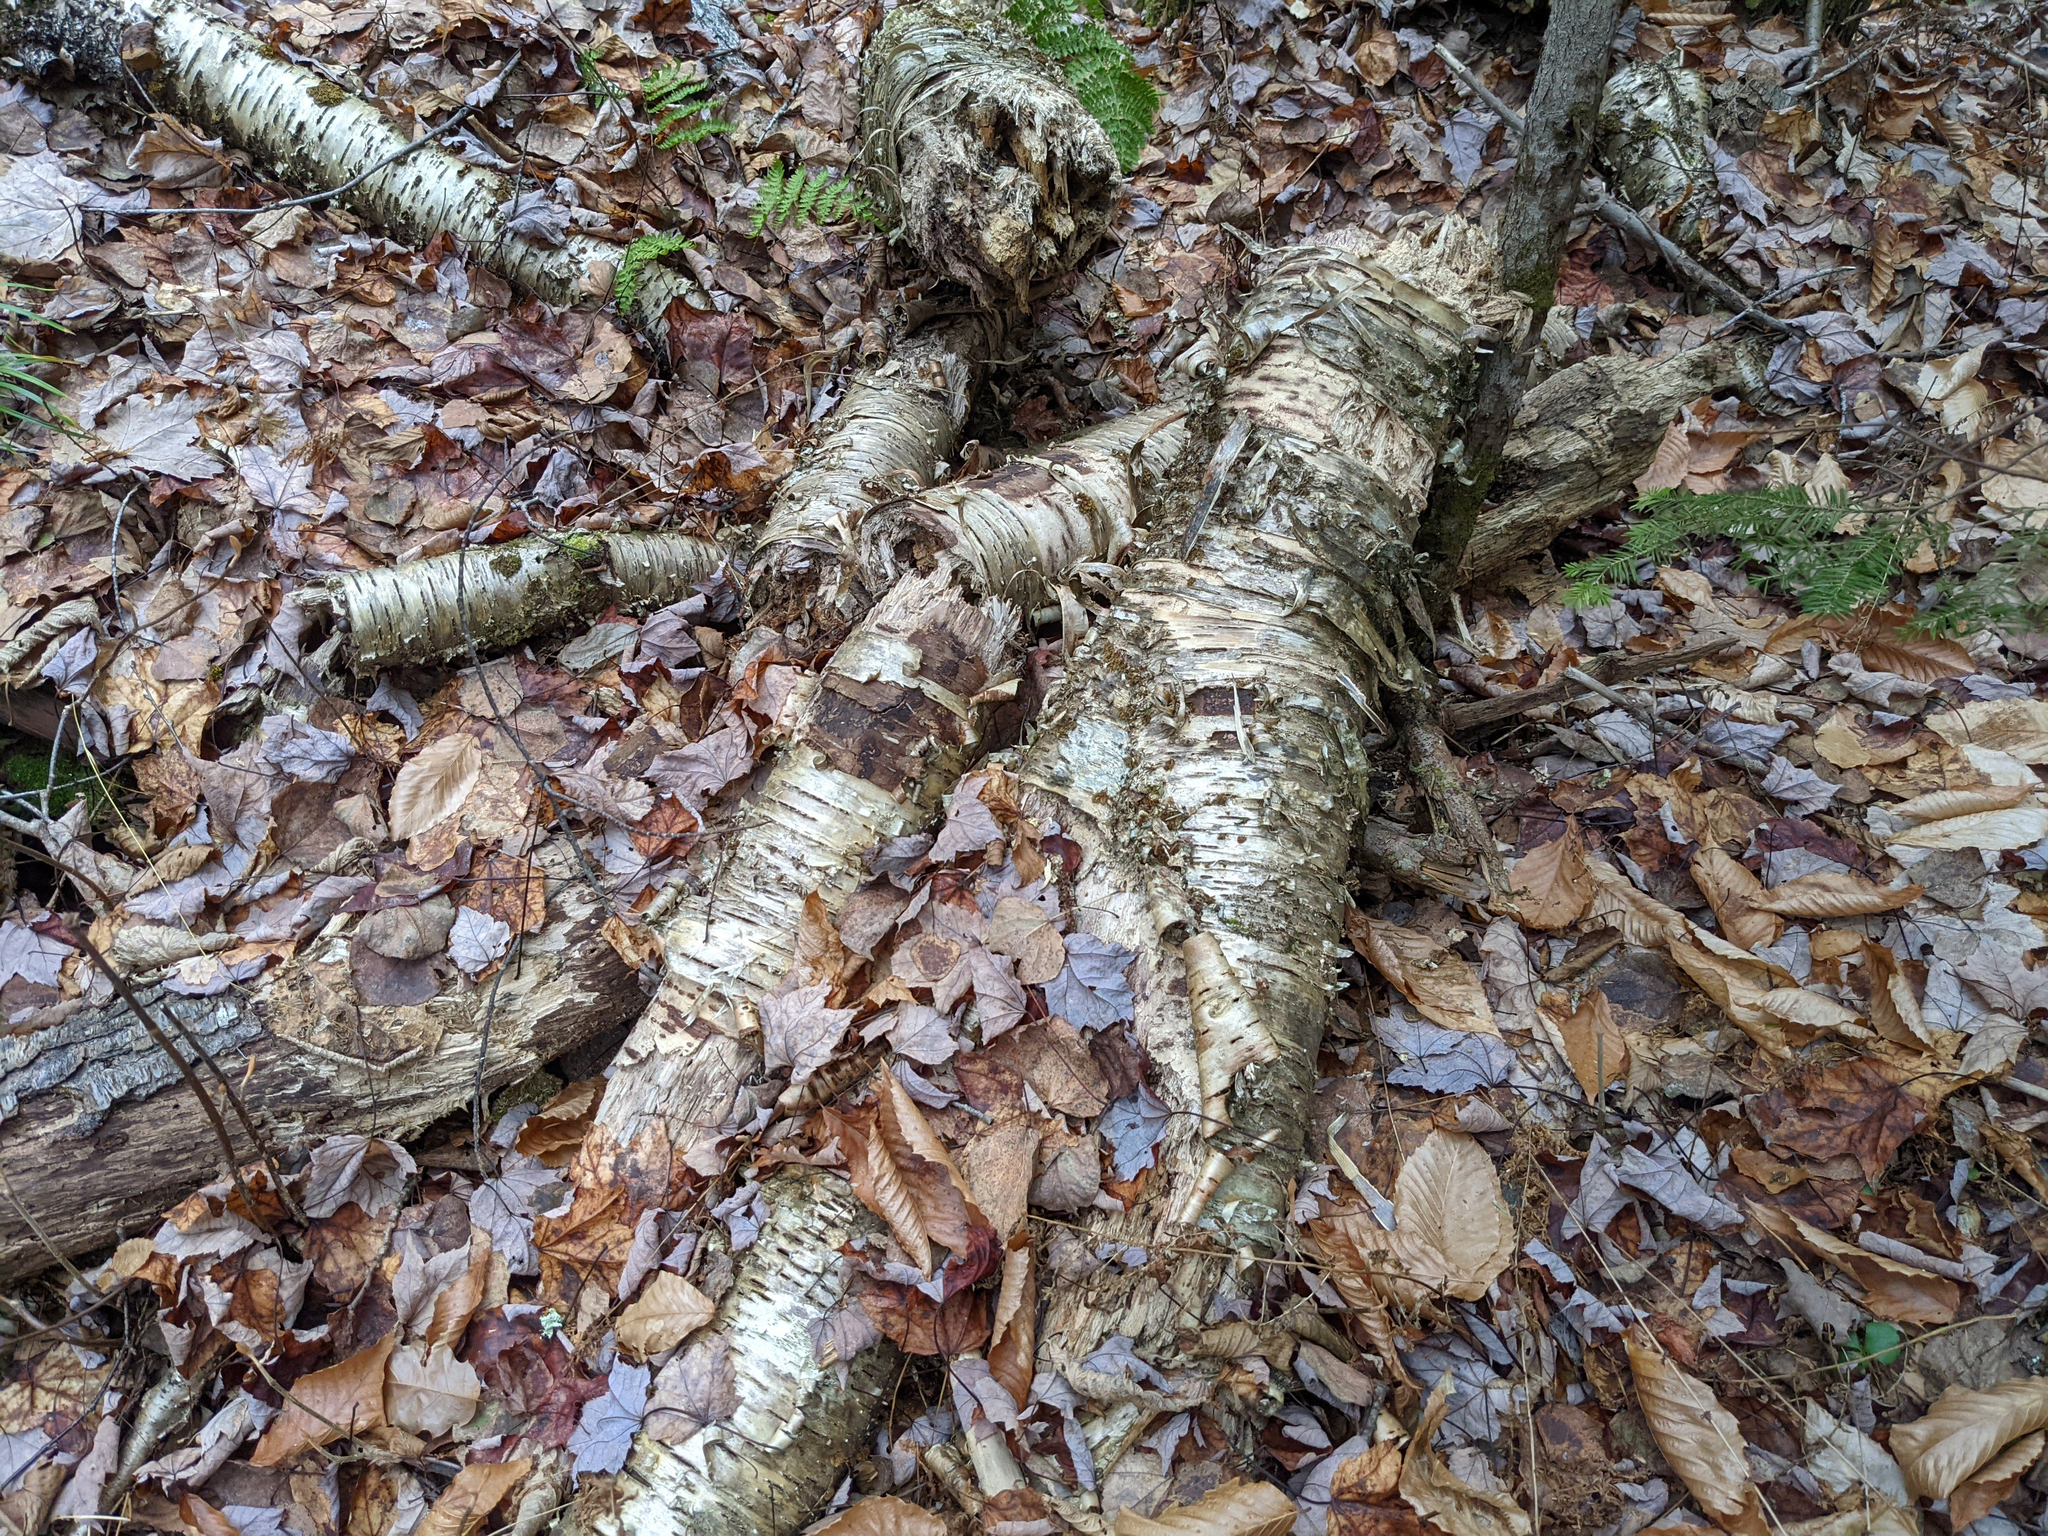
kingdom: Plantae
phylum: Tracheophyta
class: Magnoliopsida
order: Fagales
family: Betulaceae
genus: Betula
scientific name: Betula alleghaniensis
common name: Yellow birch
